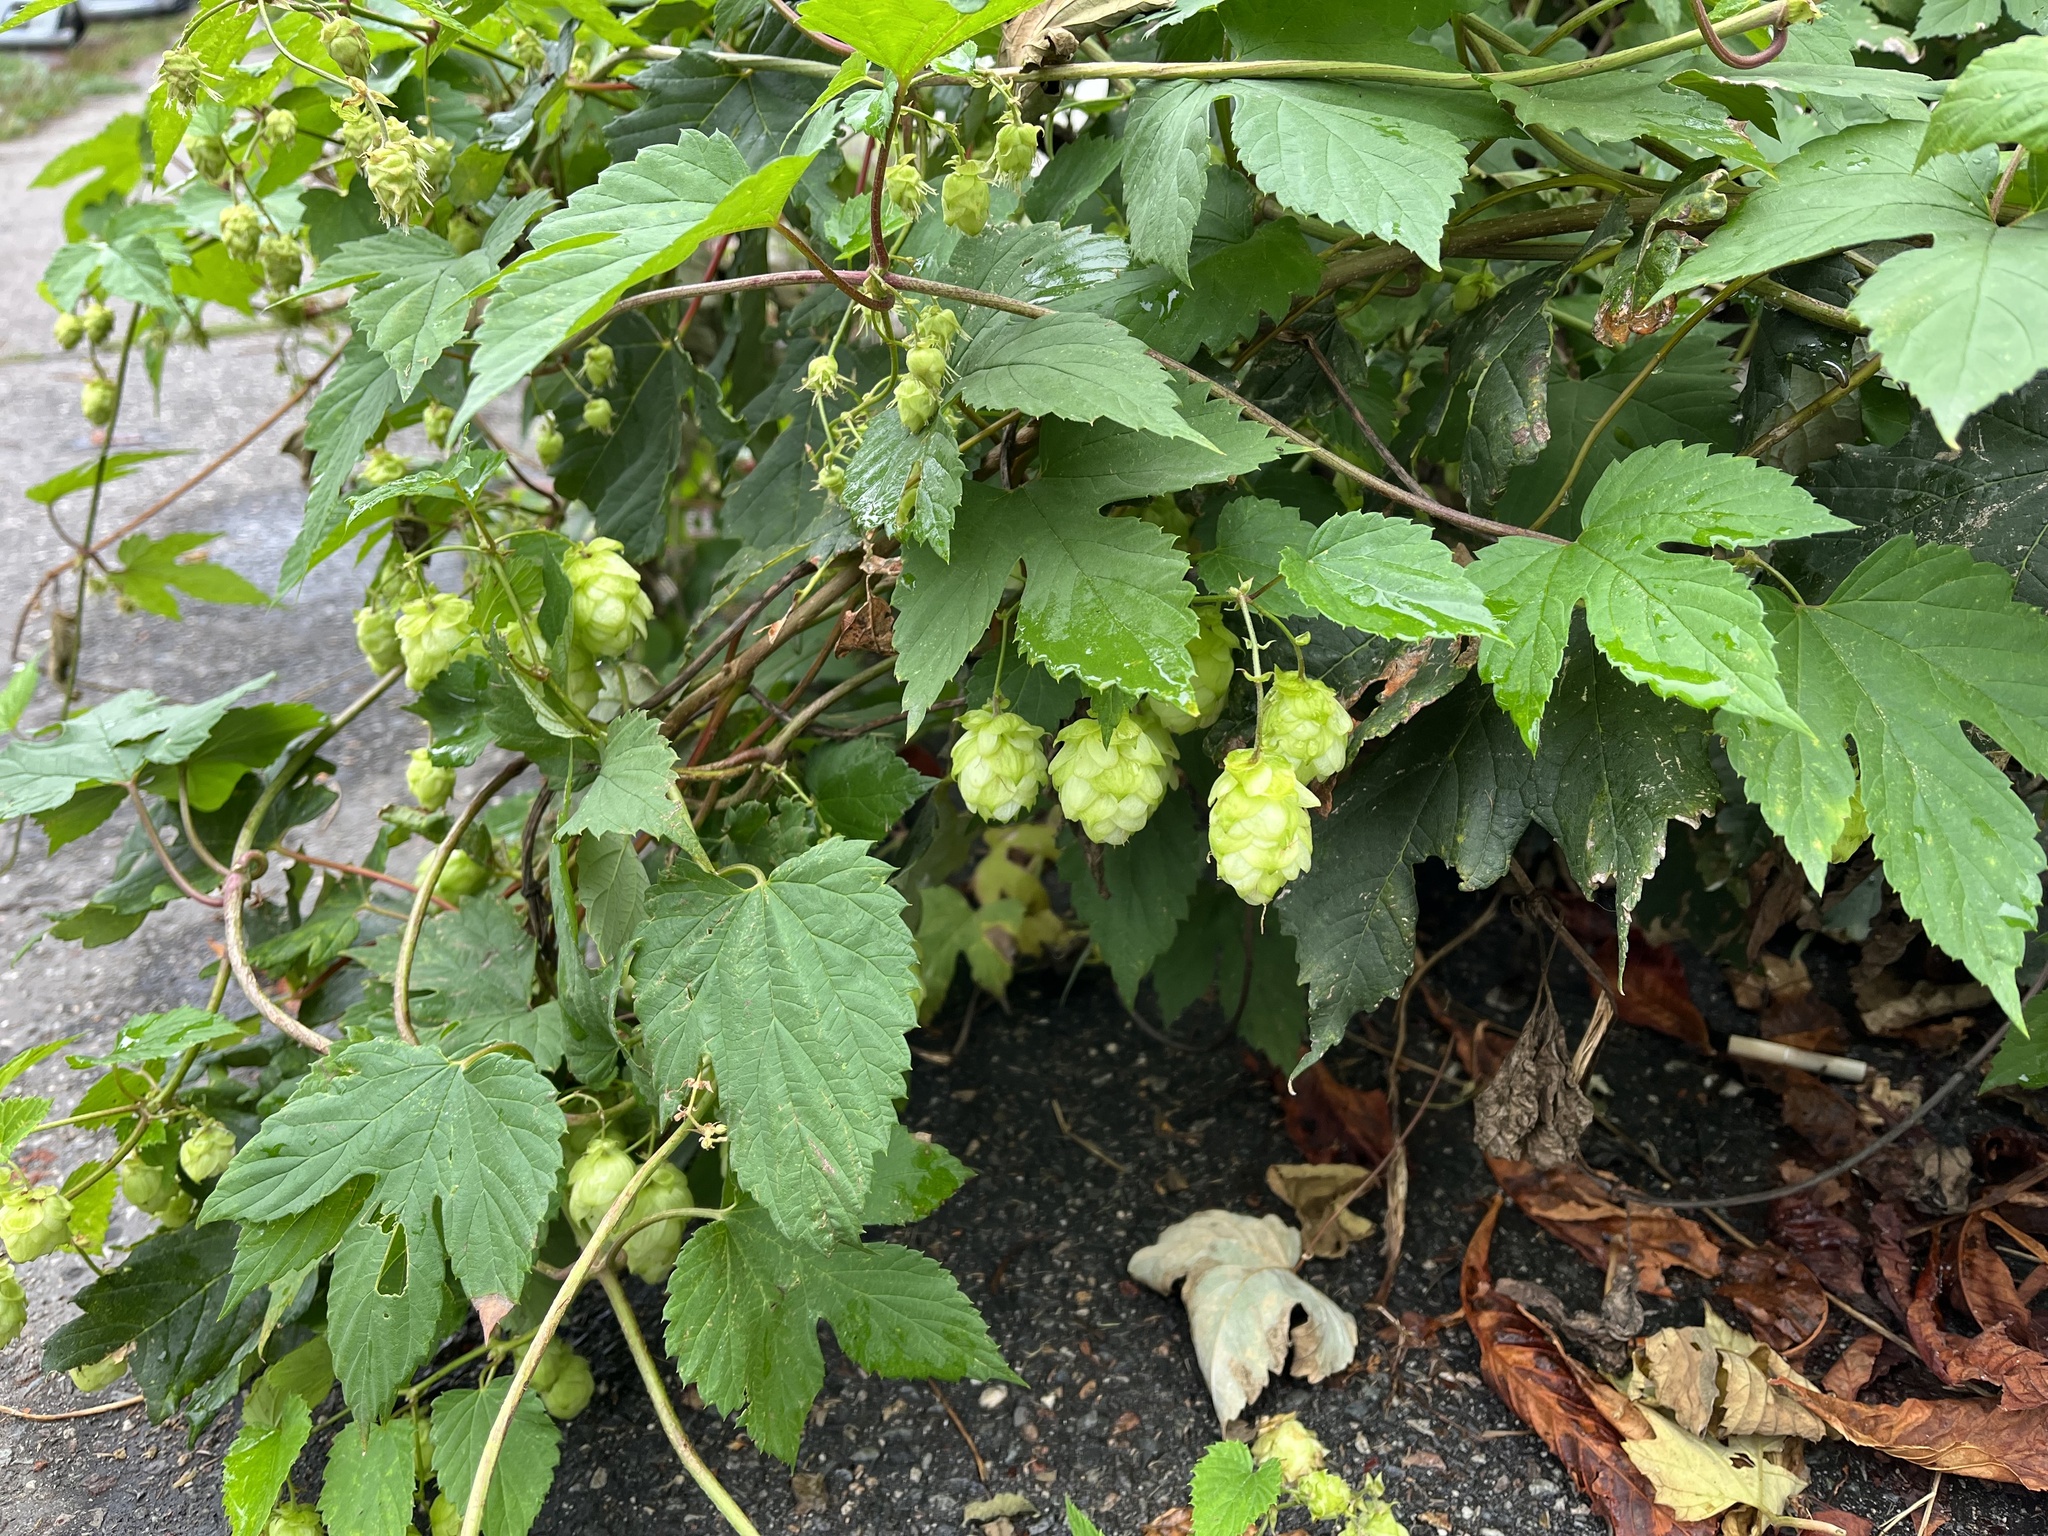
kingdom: Plantae
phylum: Tracheophyta
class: Magnoliopsida
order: Rosales
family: Cannabaceae
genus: Humulus
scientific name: Humulus lupulus
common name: Hop
